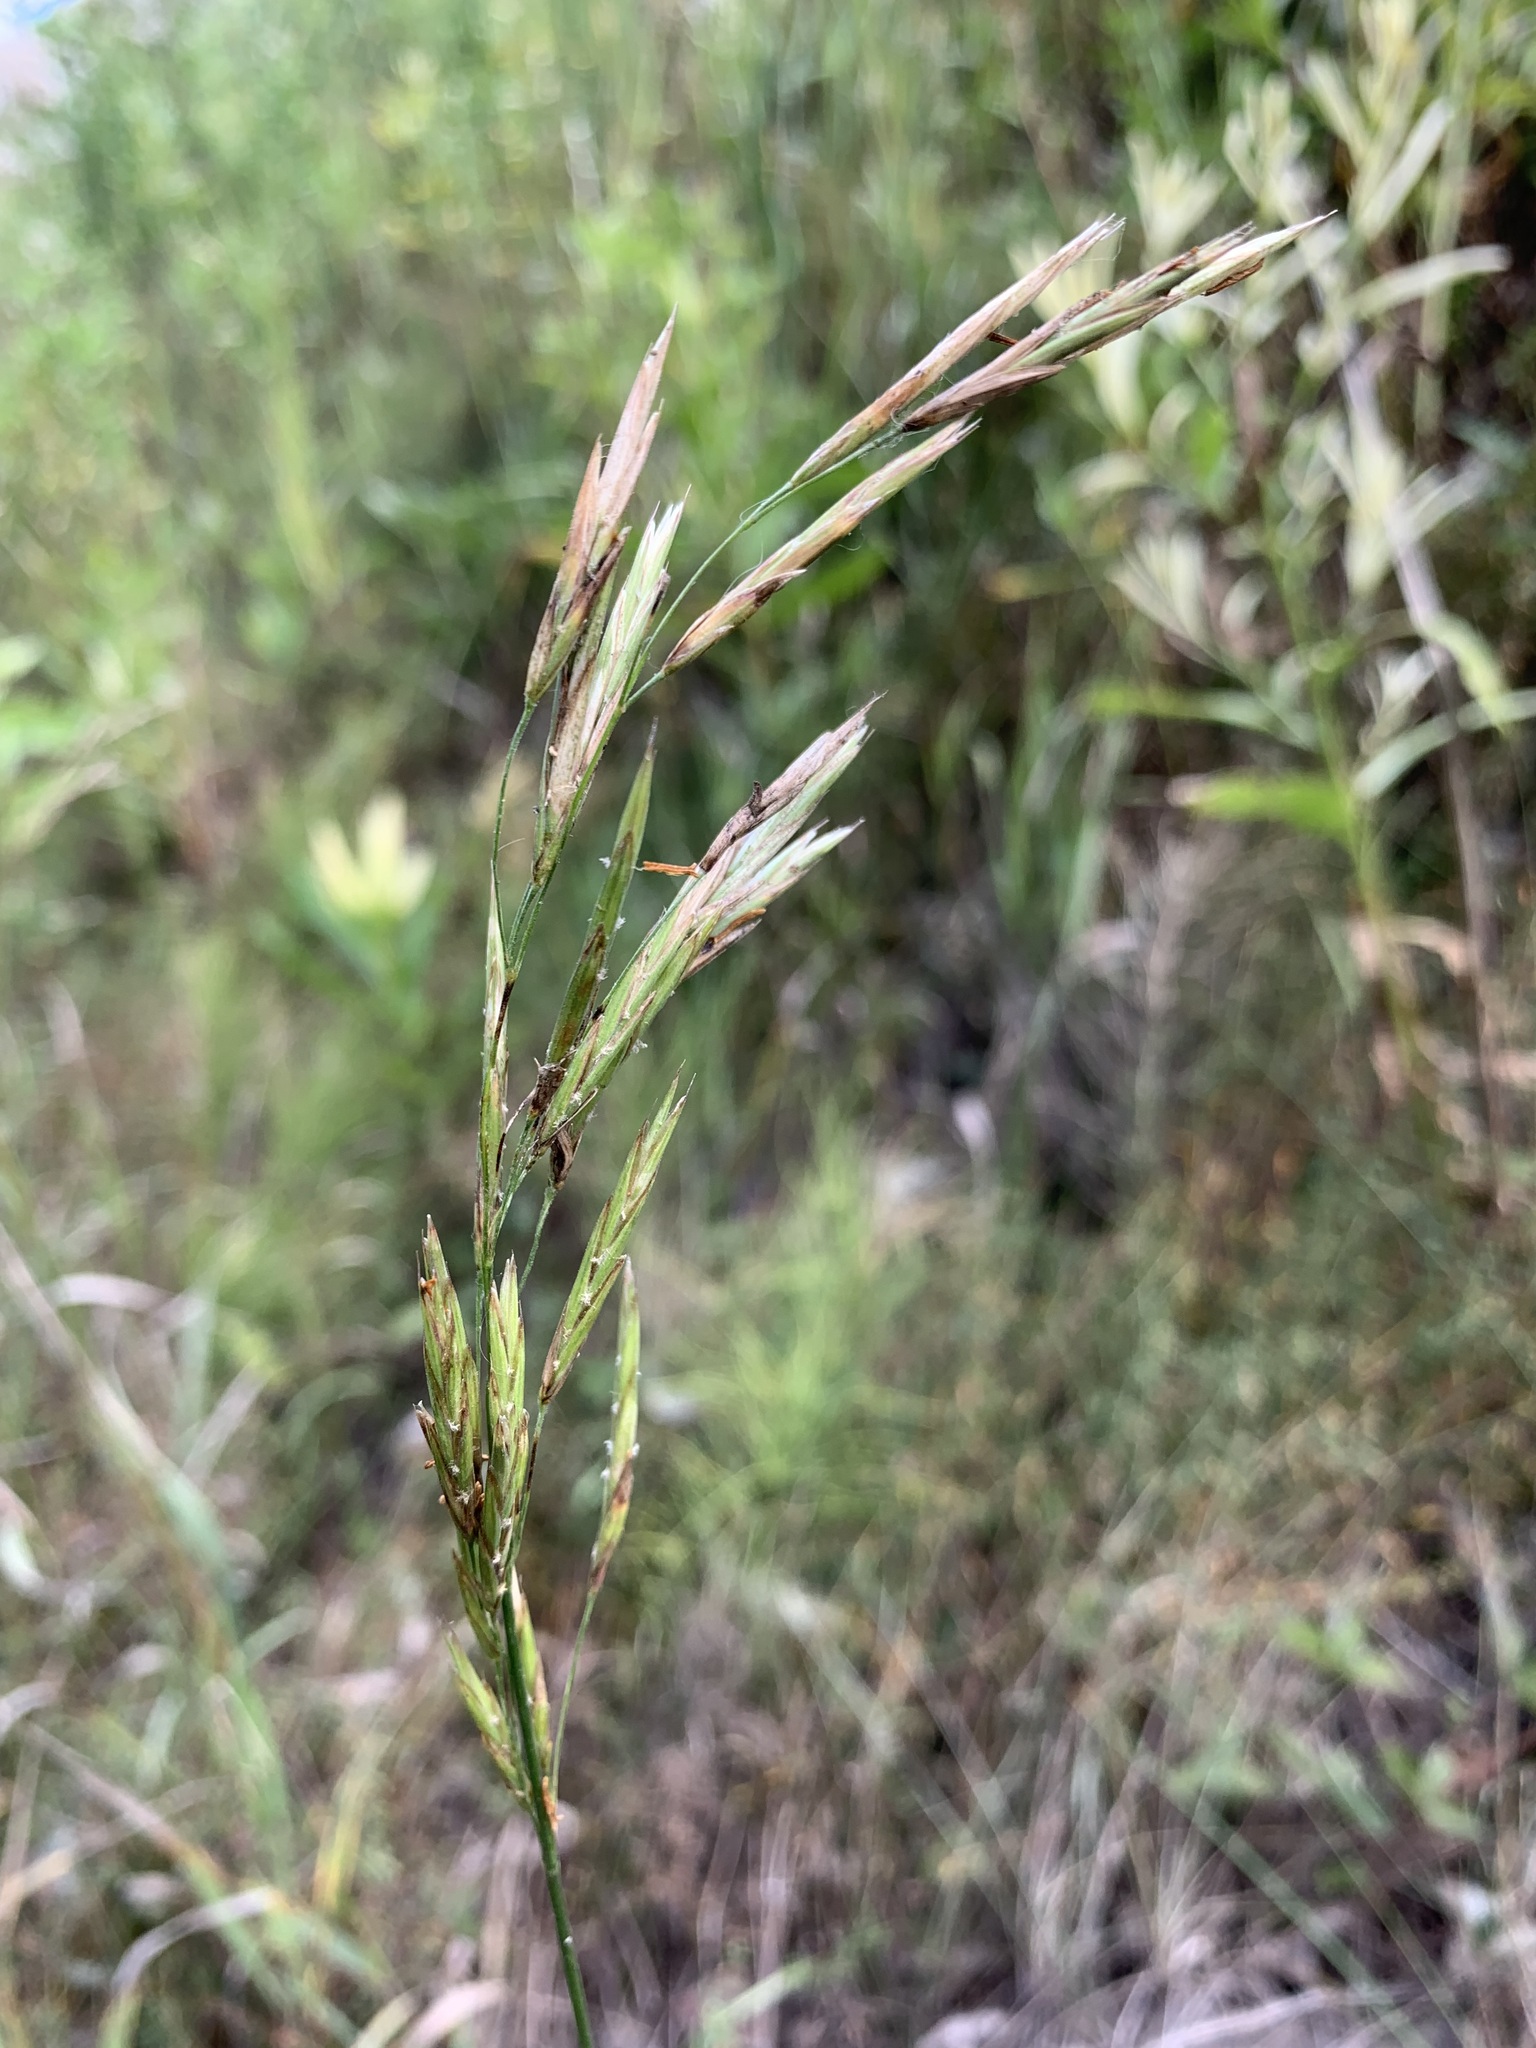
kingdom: Plantae
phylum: Tracheophyta
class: Liliopsida
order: Poales
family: Poaceae
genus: Bromus
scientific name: Bromus inermis
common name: Smooth brome
